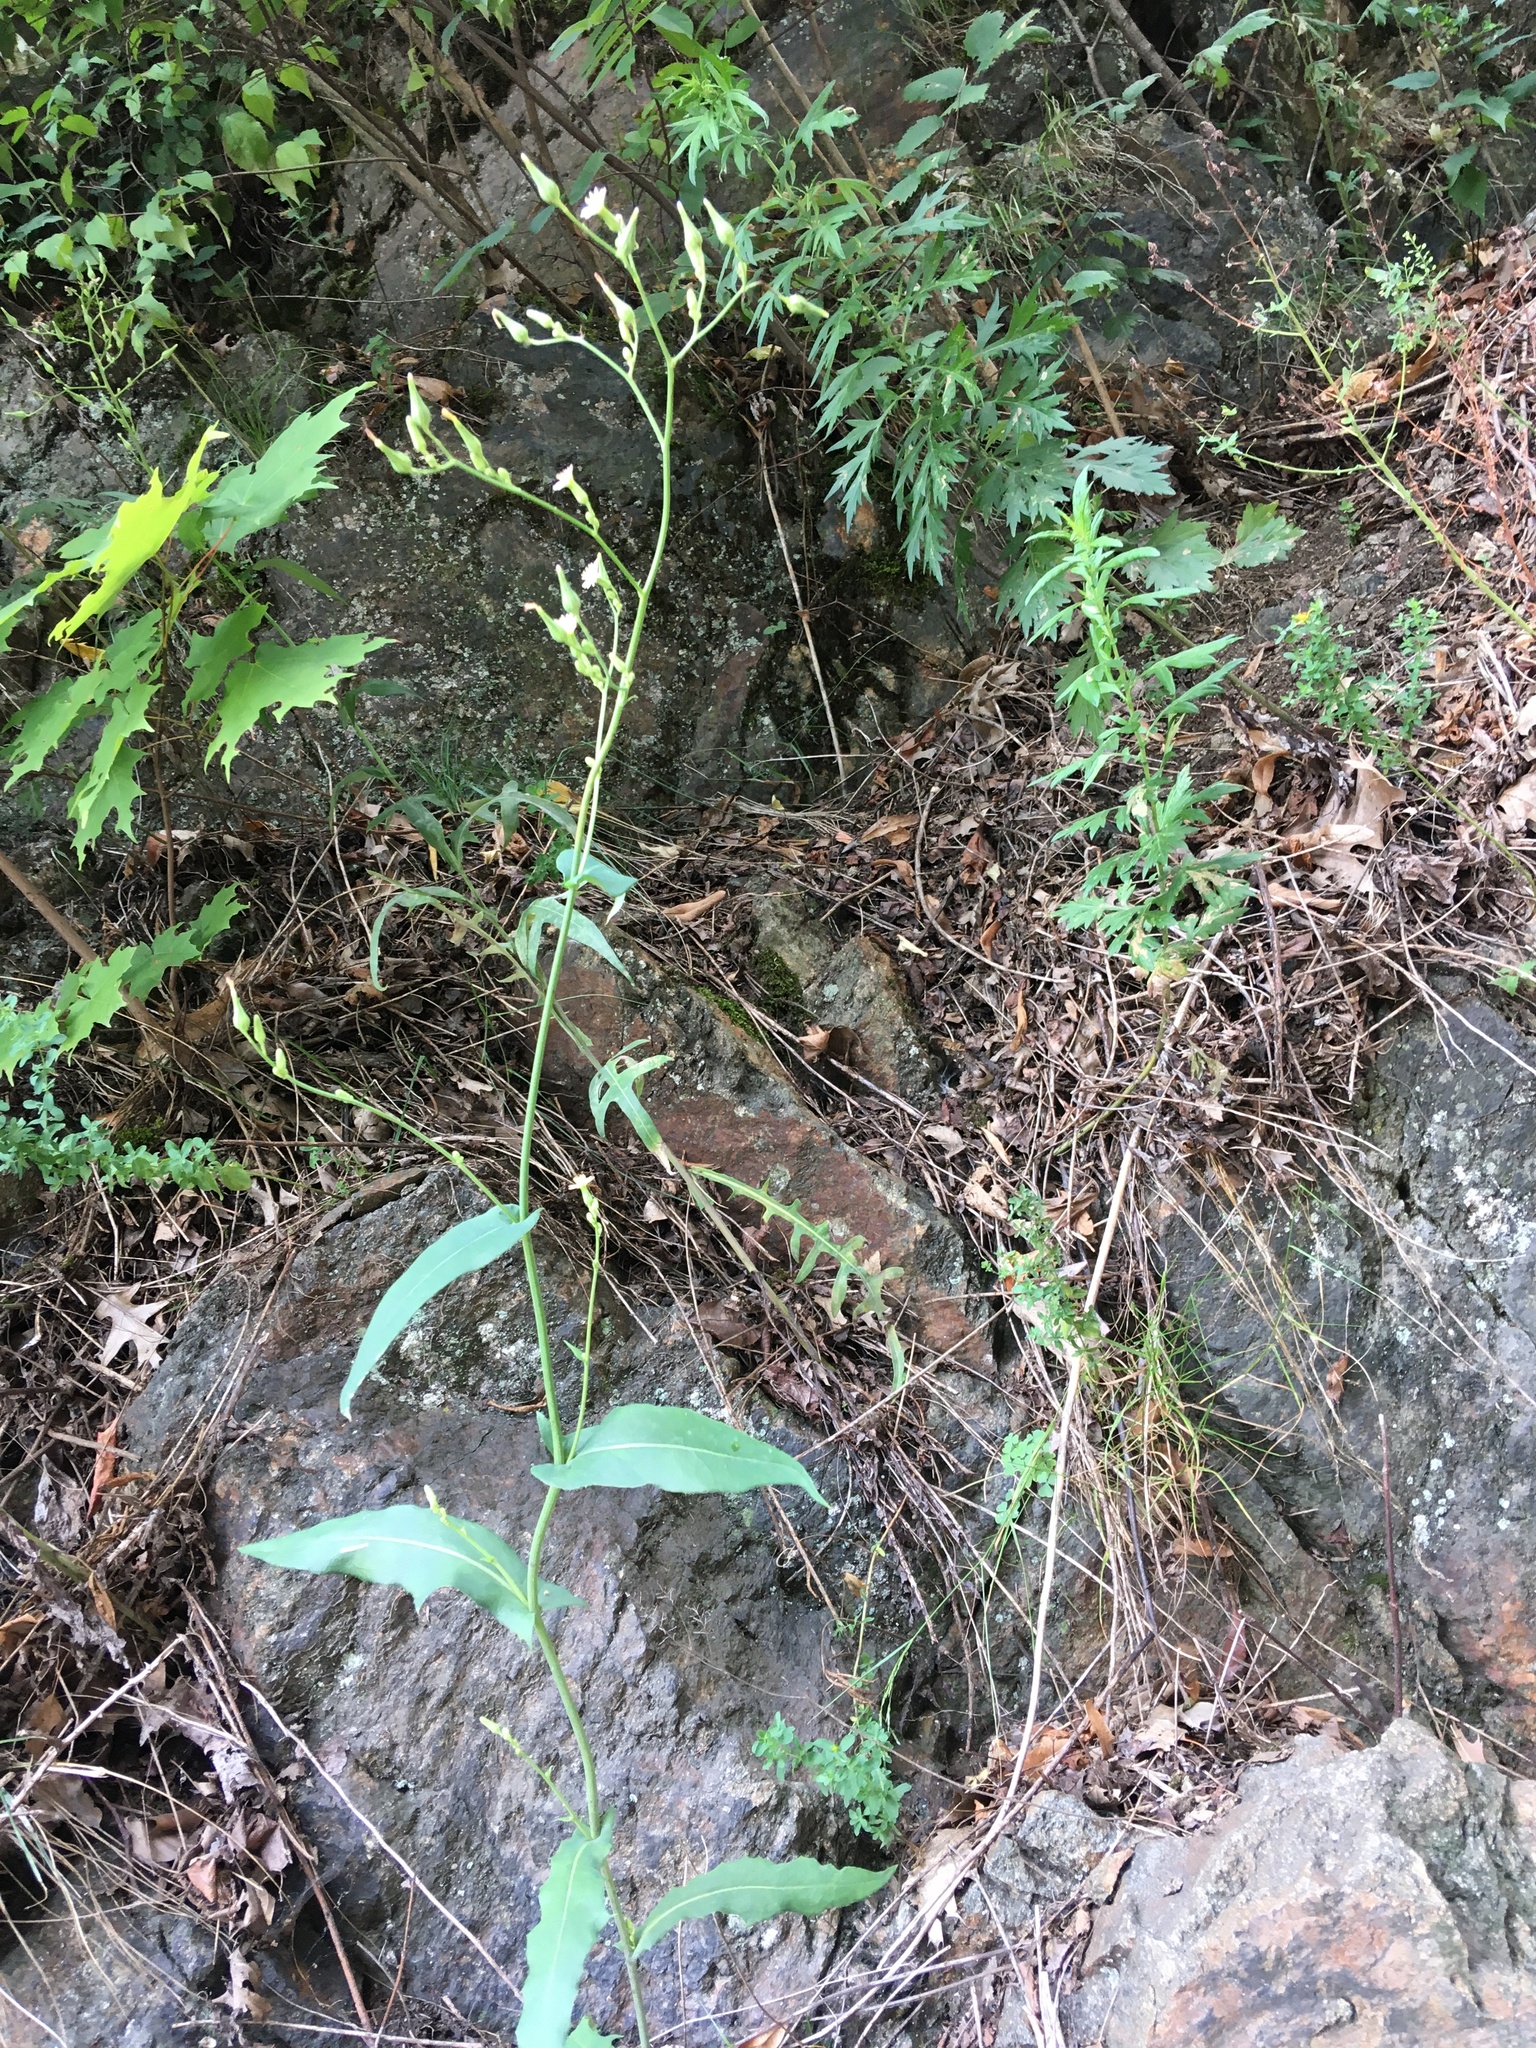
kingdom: Plantae
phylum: Tracheophyta
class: Magnoliopsida
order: Asterales
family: Asteraceae
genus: Lactuca
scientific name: Lactuca canadensis
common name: Canada lettuce
